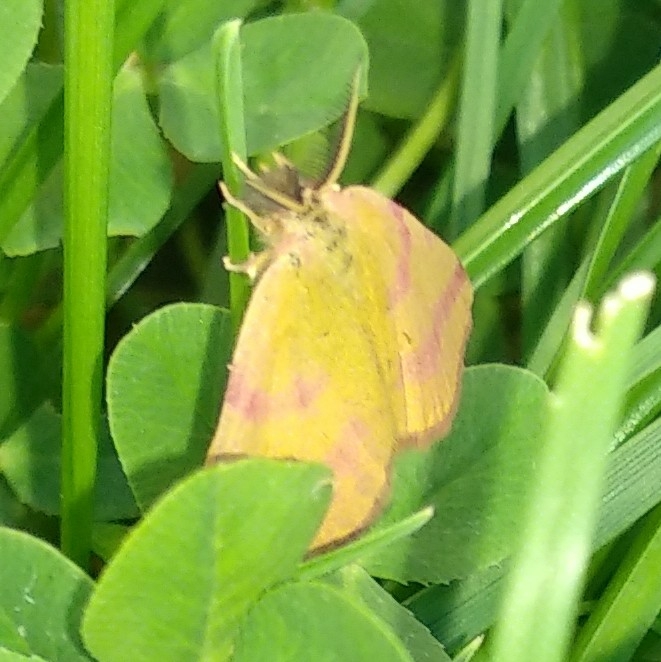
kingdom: Animalia
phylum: Arthropoda
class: Insecta
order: Lepidoptera
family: Geometridae
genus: Lythria
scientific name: Lythria purpuraria
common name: Purple-barred yellow
